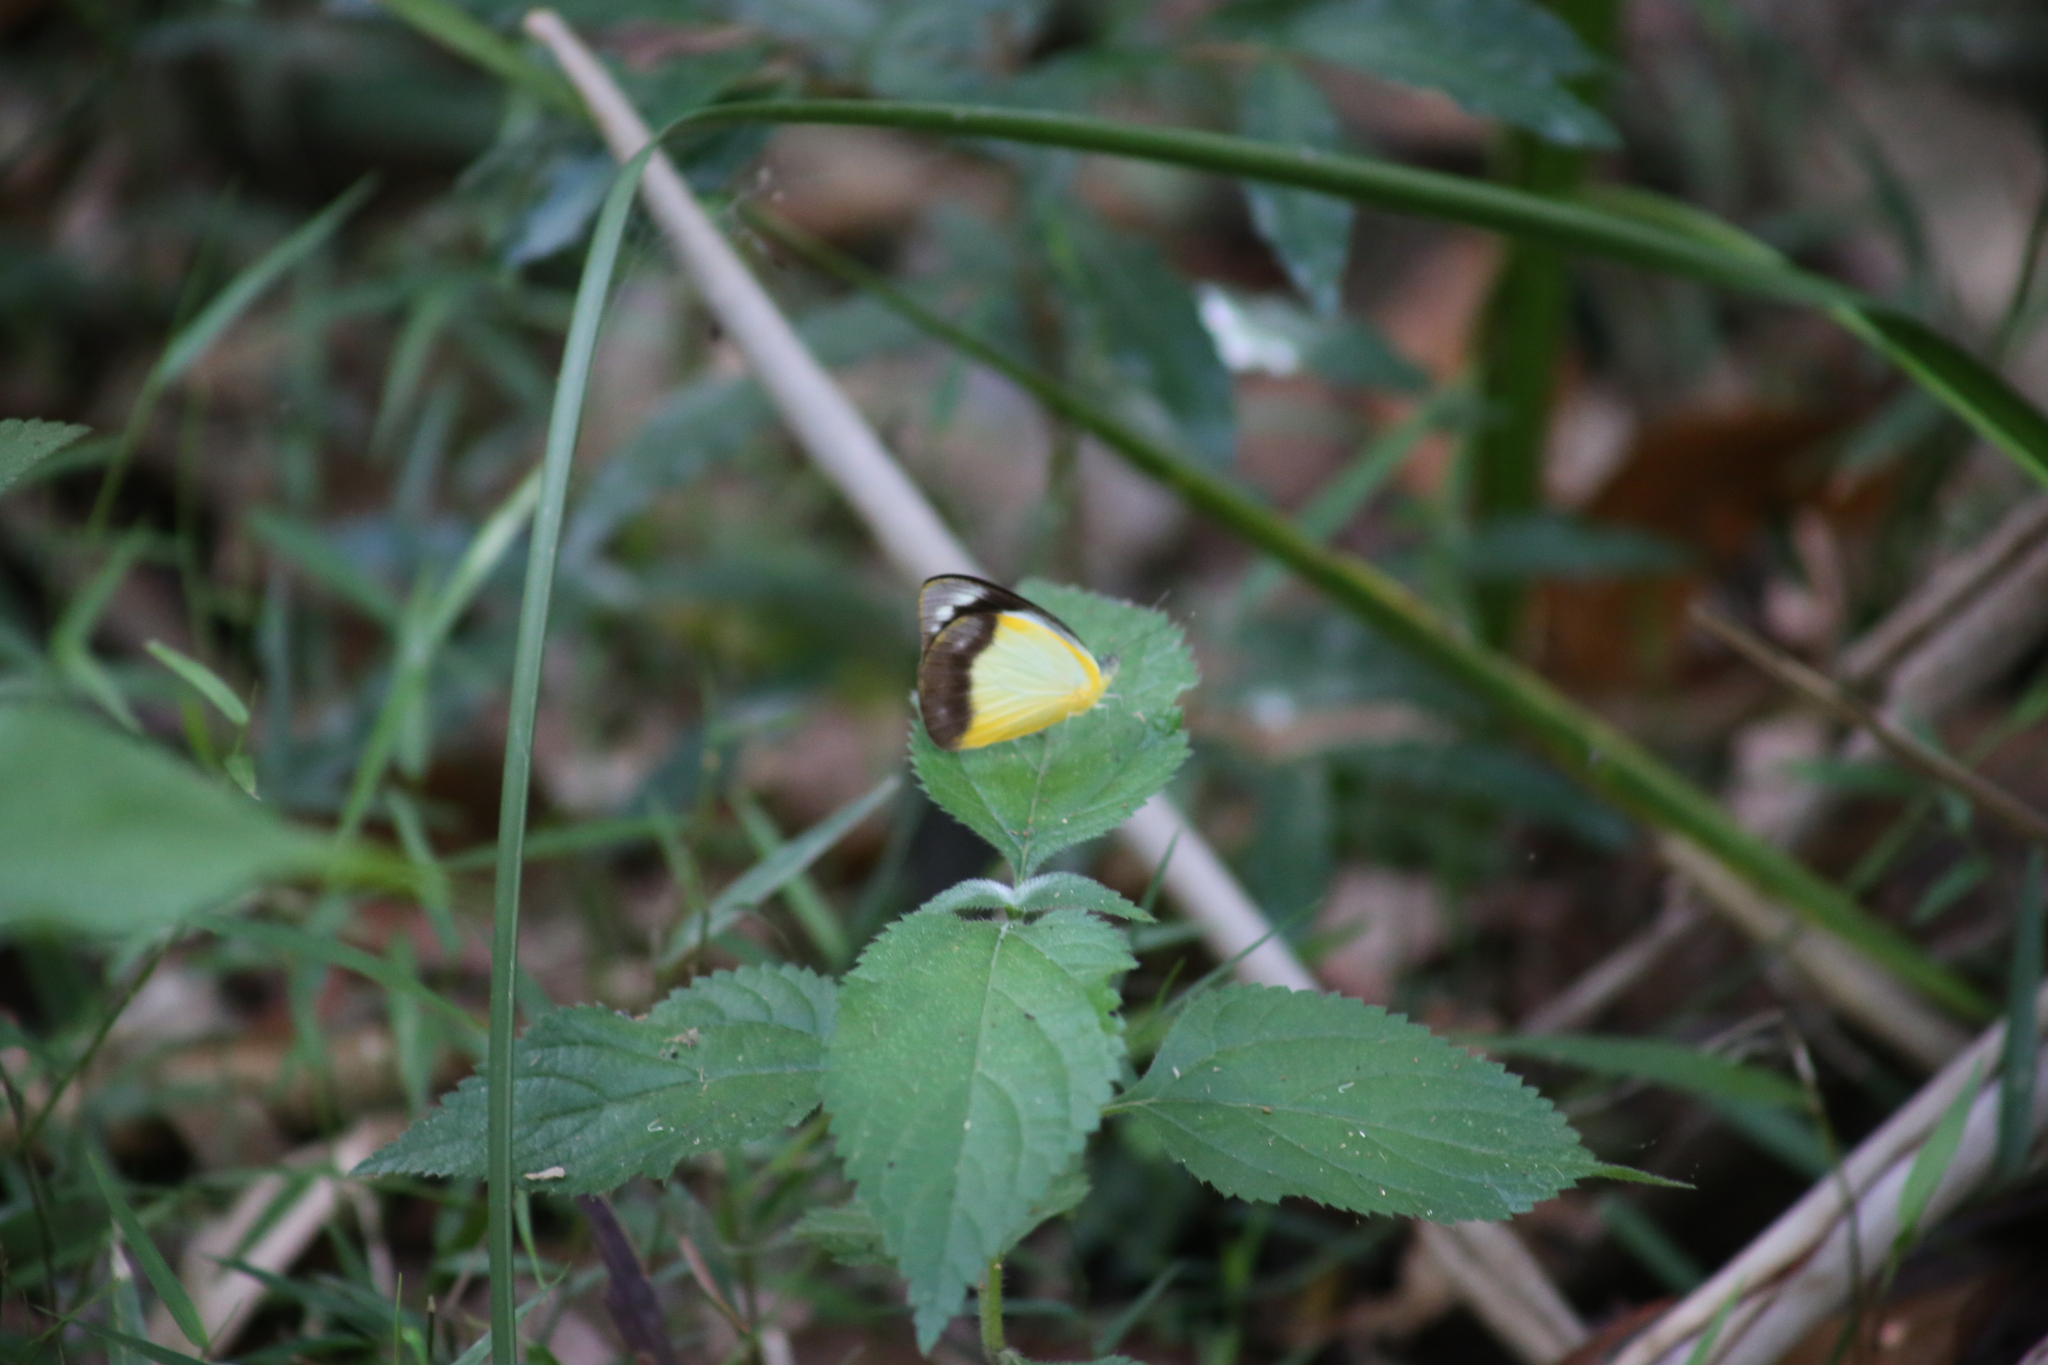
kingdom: Animalia
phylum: Arthropoda
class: Insecta
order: Lepidoptera
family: Pieridae
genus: Appias
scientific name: Appias paulina
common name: Ceylon lesser albatross
